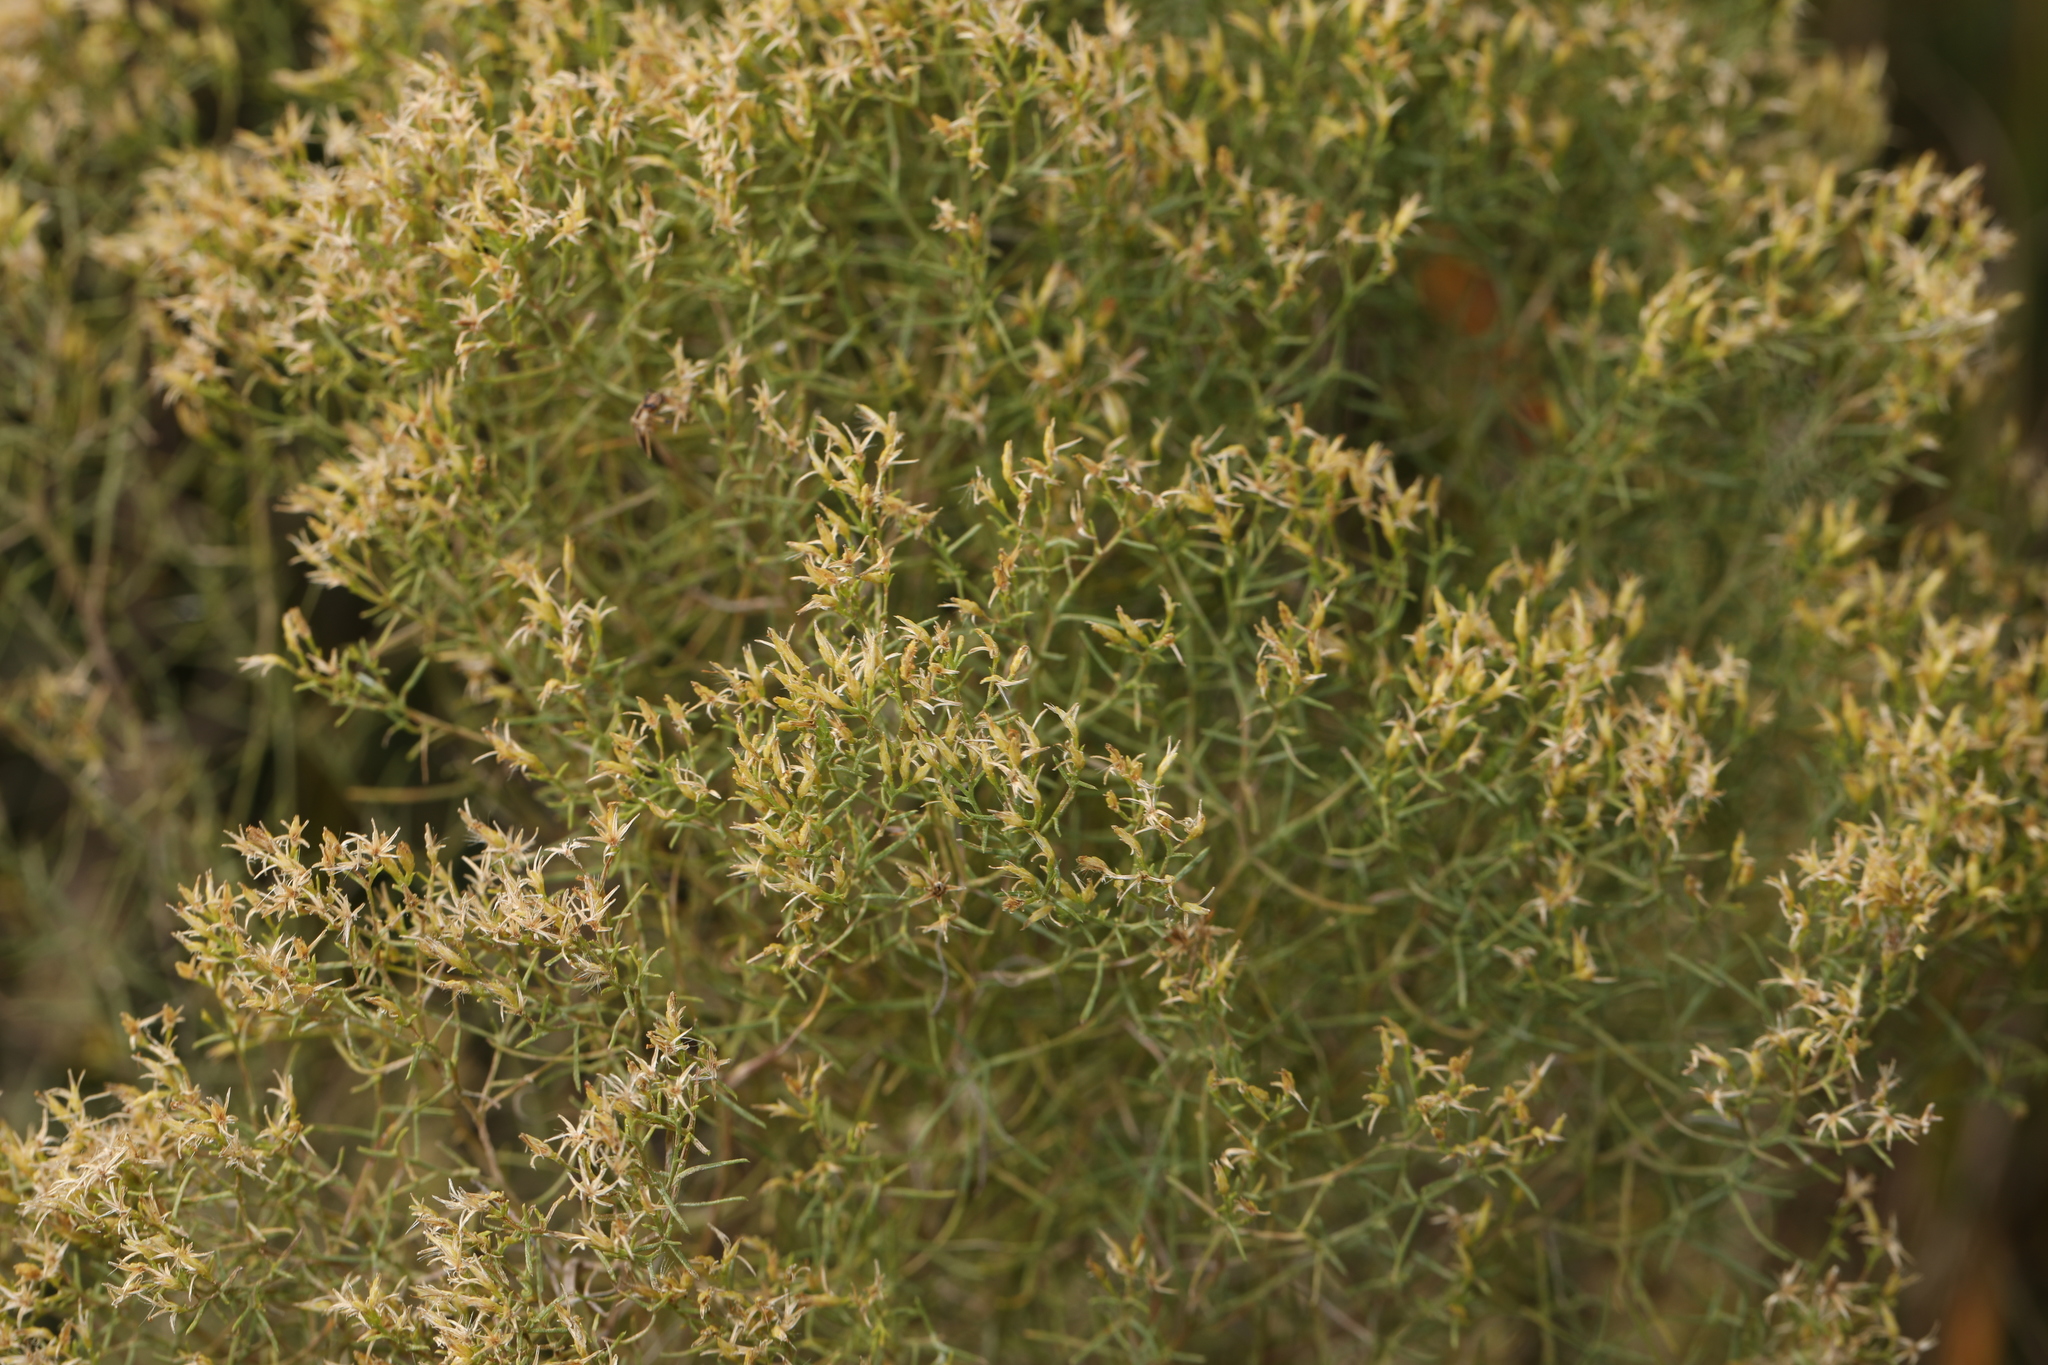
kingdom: Plantae
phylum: Tracheophyta
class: Magnoliopsida
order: Asterales
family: Asteraceae
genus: Euthamia
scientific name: Euthamia caroliniana
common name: Coastal plain goldentop
